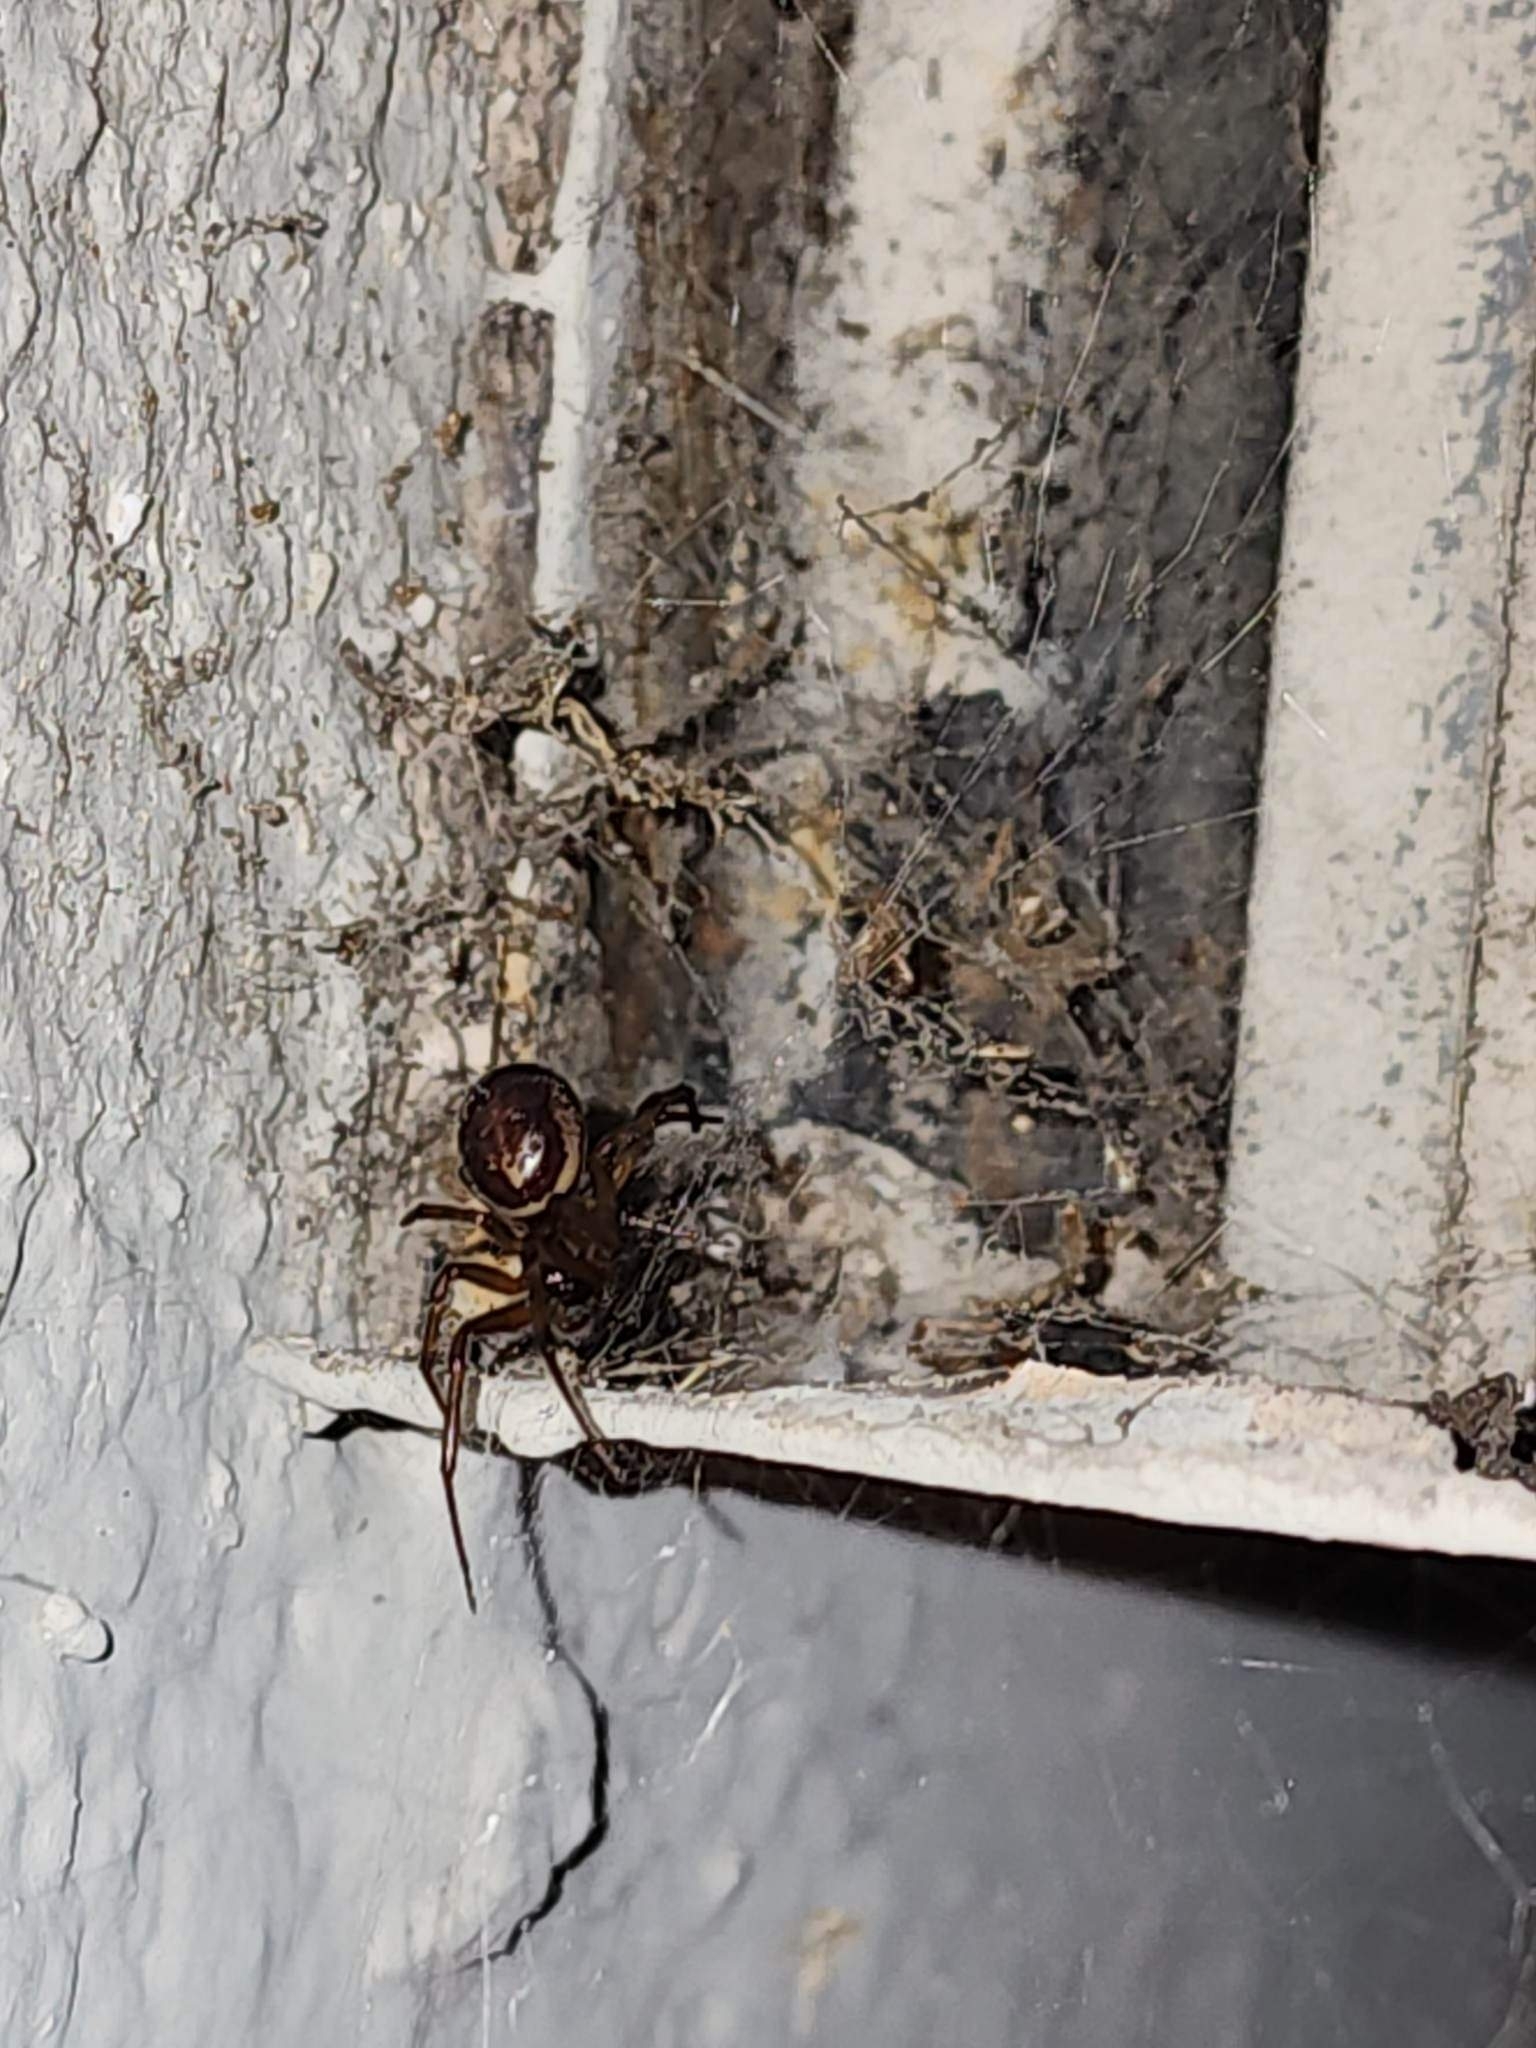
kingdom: Animalia
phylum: Arthropoda
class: Arachnida
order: Araneae
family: Theridiidae
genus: Steatoda
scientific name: Steatoda nobilis
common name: Cobweb weaver
